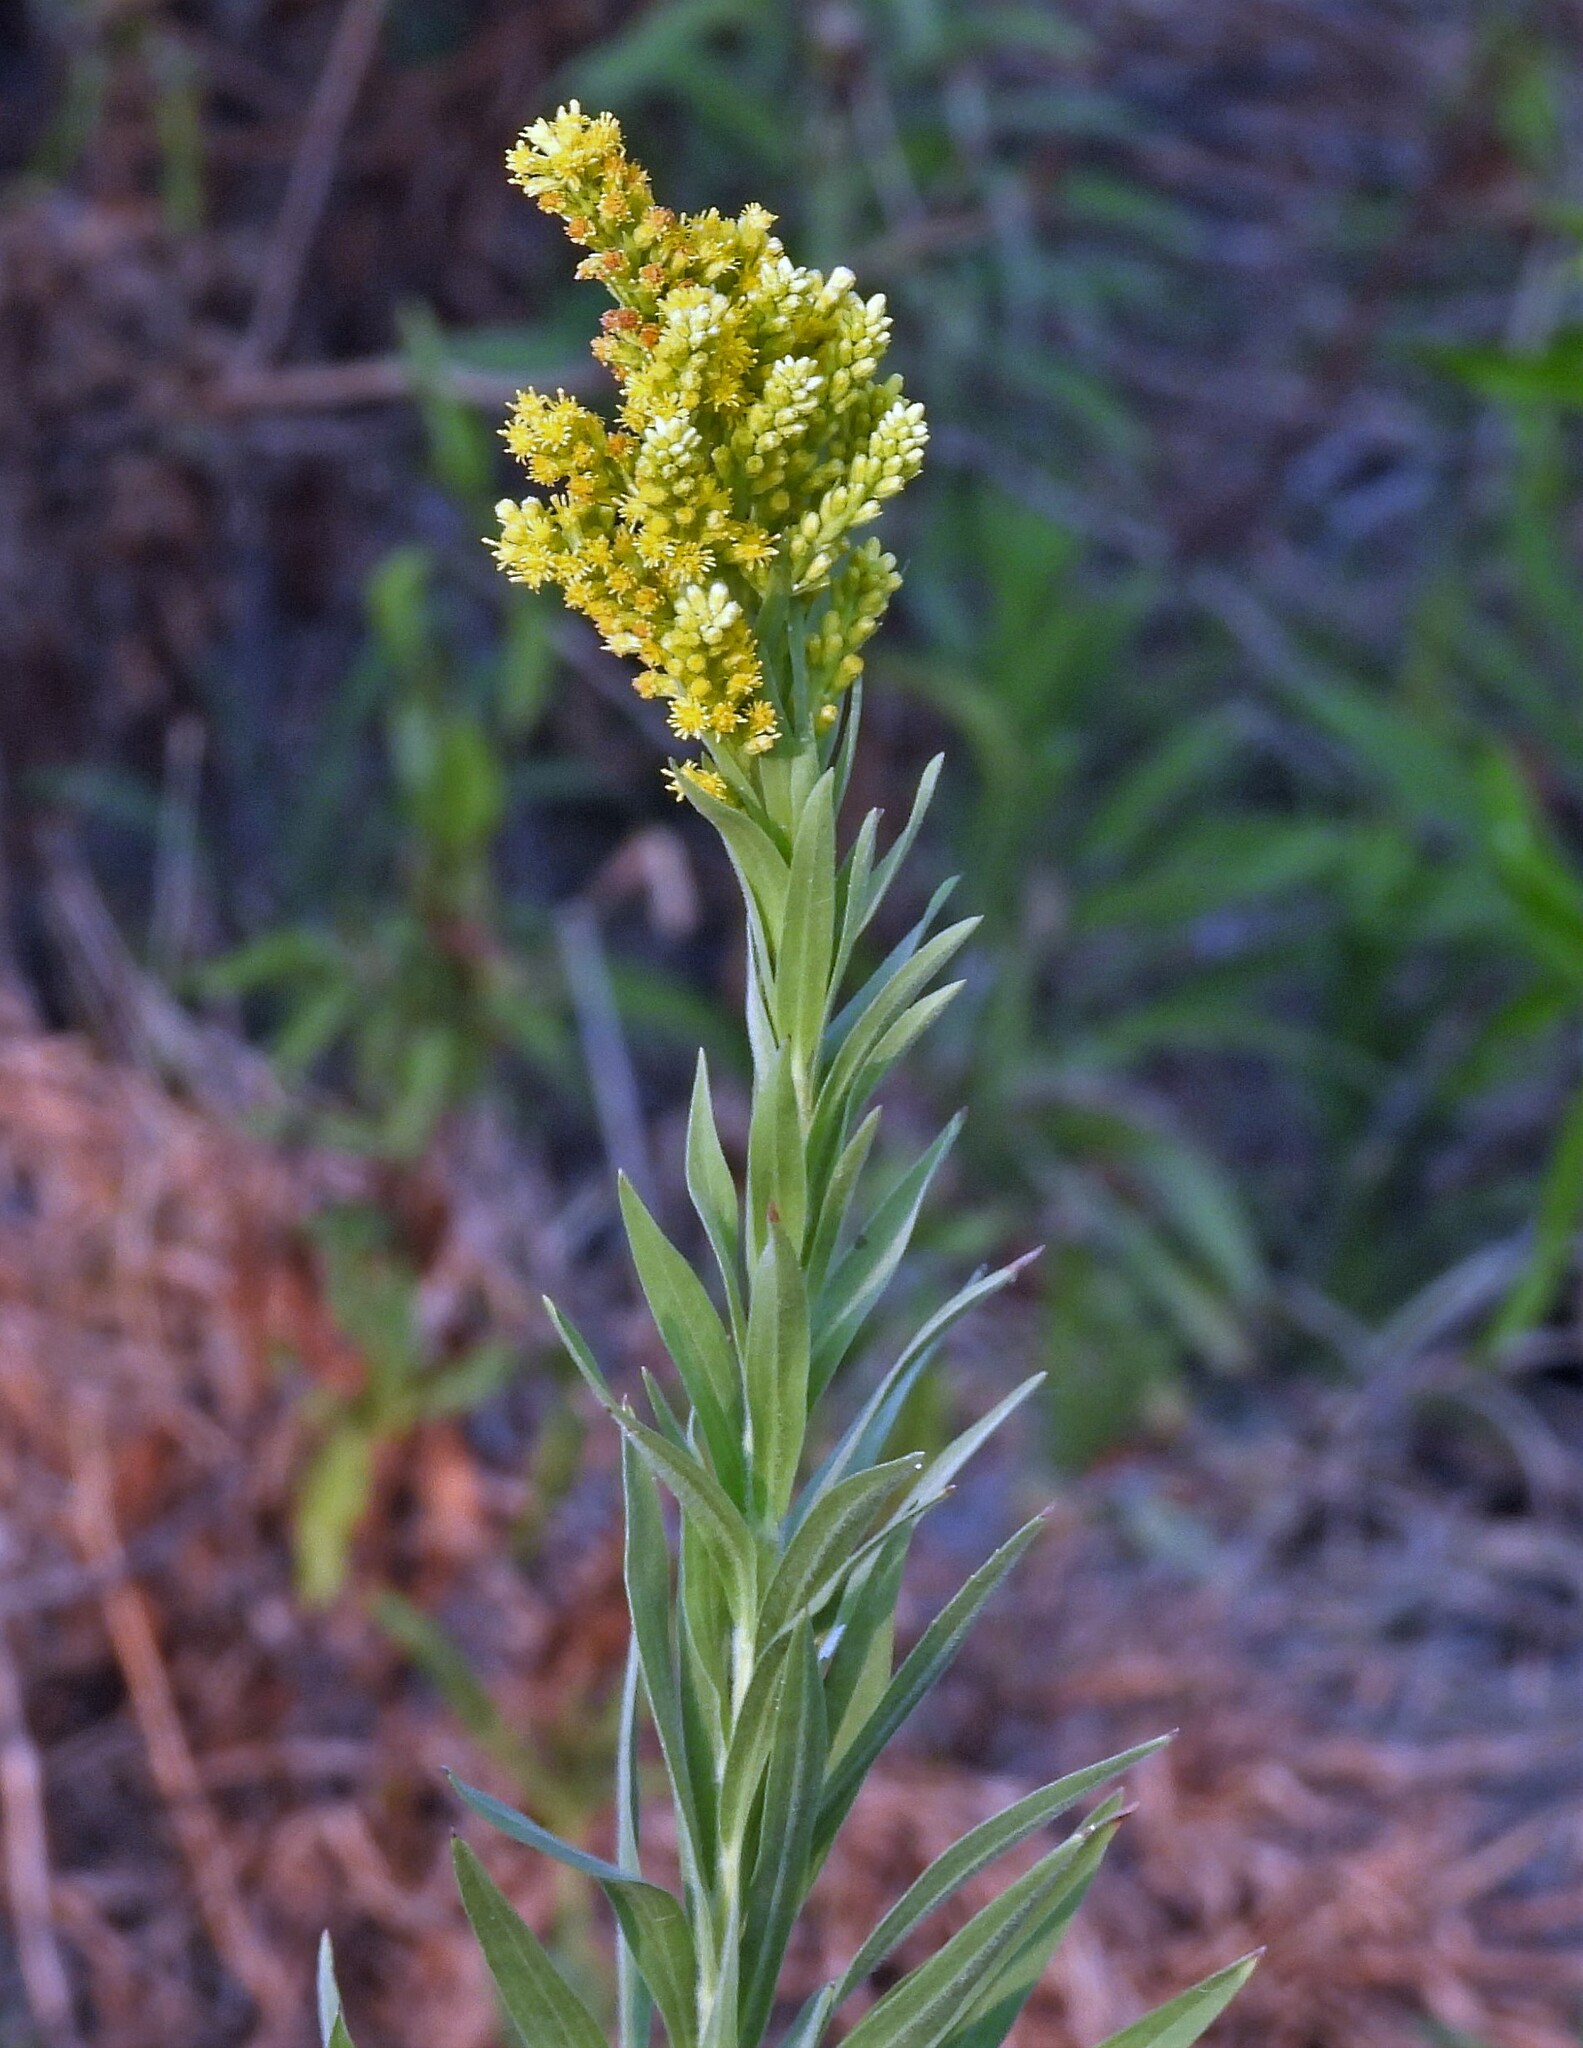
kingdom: Plantae
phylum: Tracheophyta
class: Magnoliopsida
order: Asterales
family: Asteraceae
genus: Solidago
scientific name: Solidago chilensis
